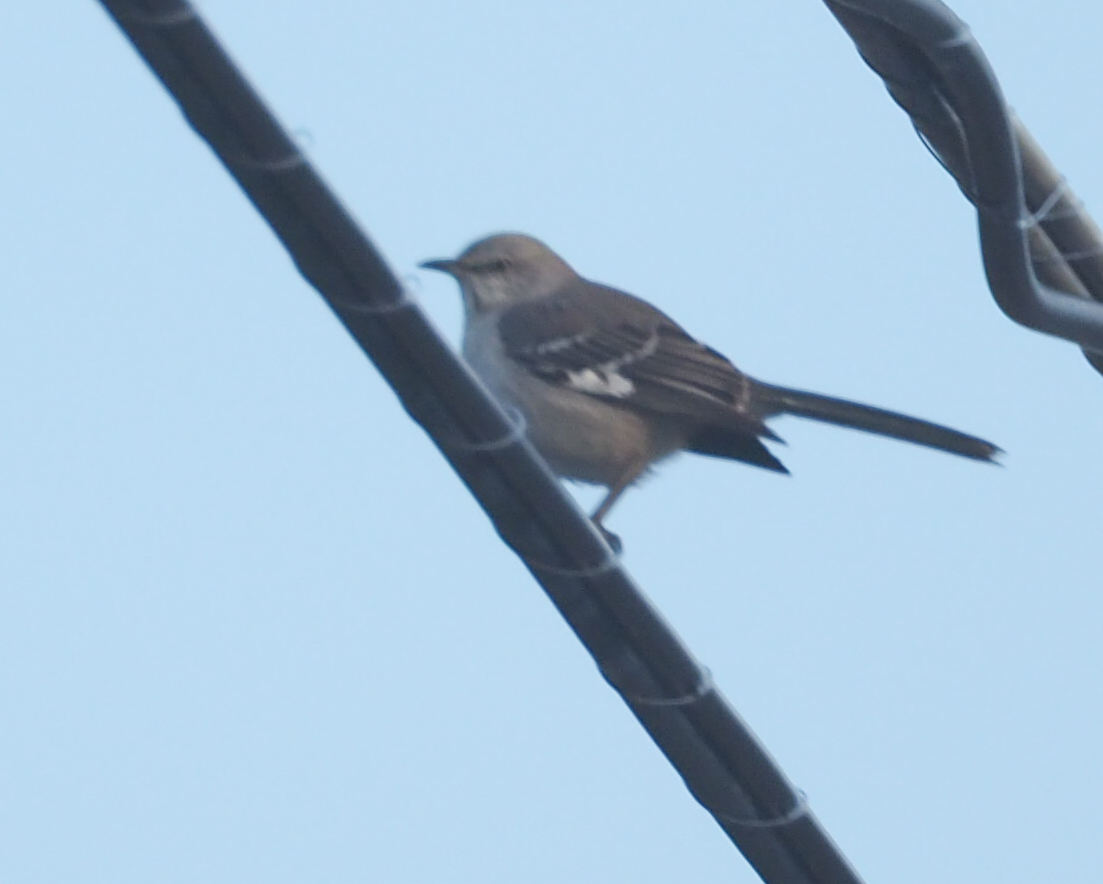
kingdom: Animalia
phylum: Chordata
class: Aves
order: Passeriformes
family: Mimidae
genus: Mimus
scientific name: Mimus polyglottos
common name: Northern mockingbird
